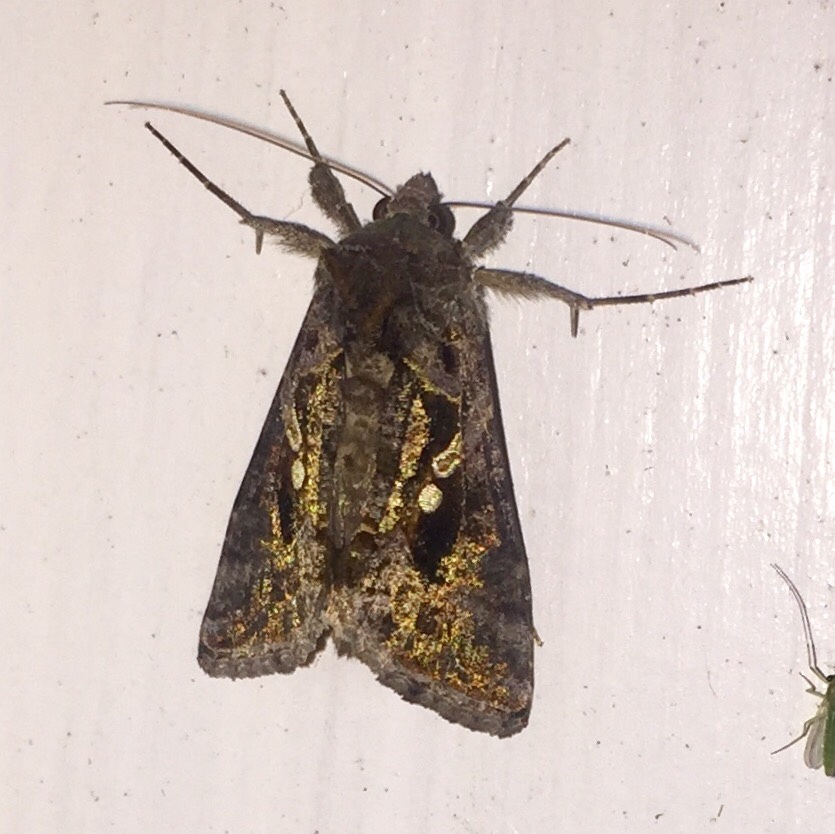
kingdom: Animalia
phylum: Arthropoda
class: Insecta
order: Lepidoptera
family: Noctuidae
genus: Chrysodeixis
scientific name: Chrysodeixis includens
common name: Cutworm moth
